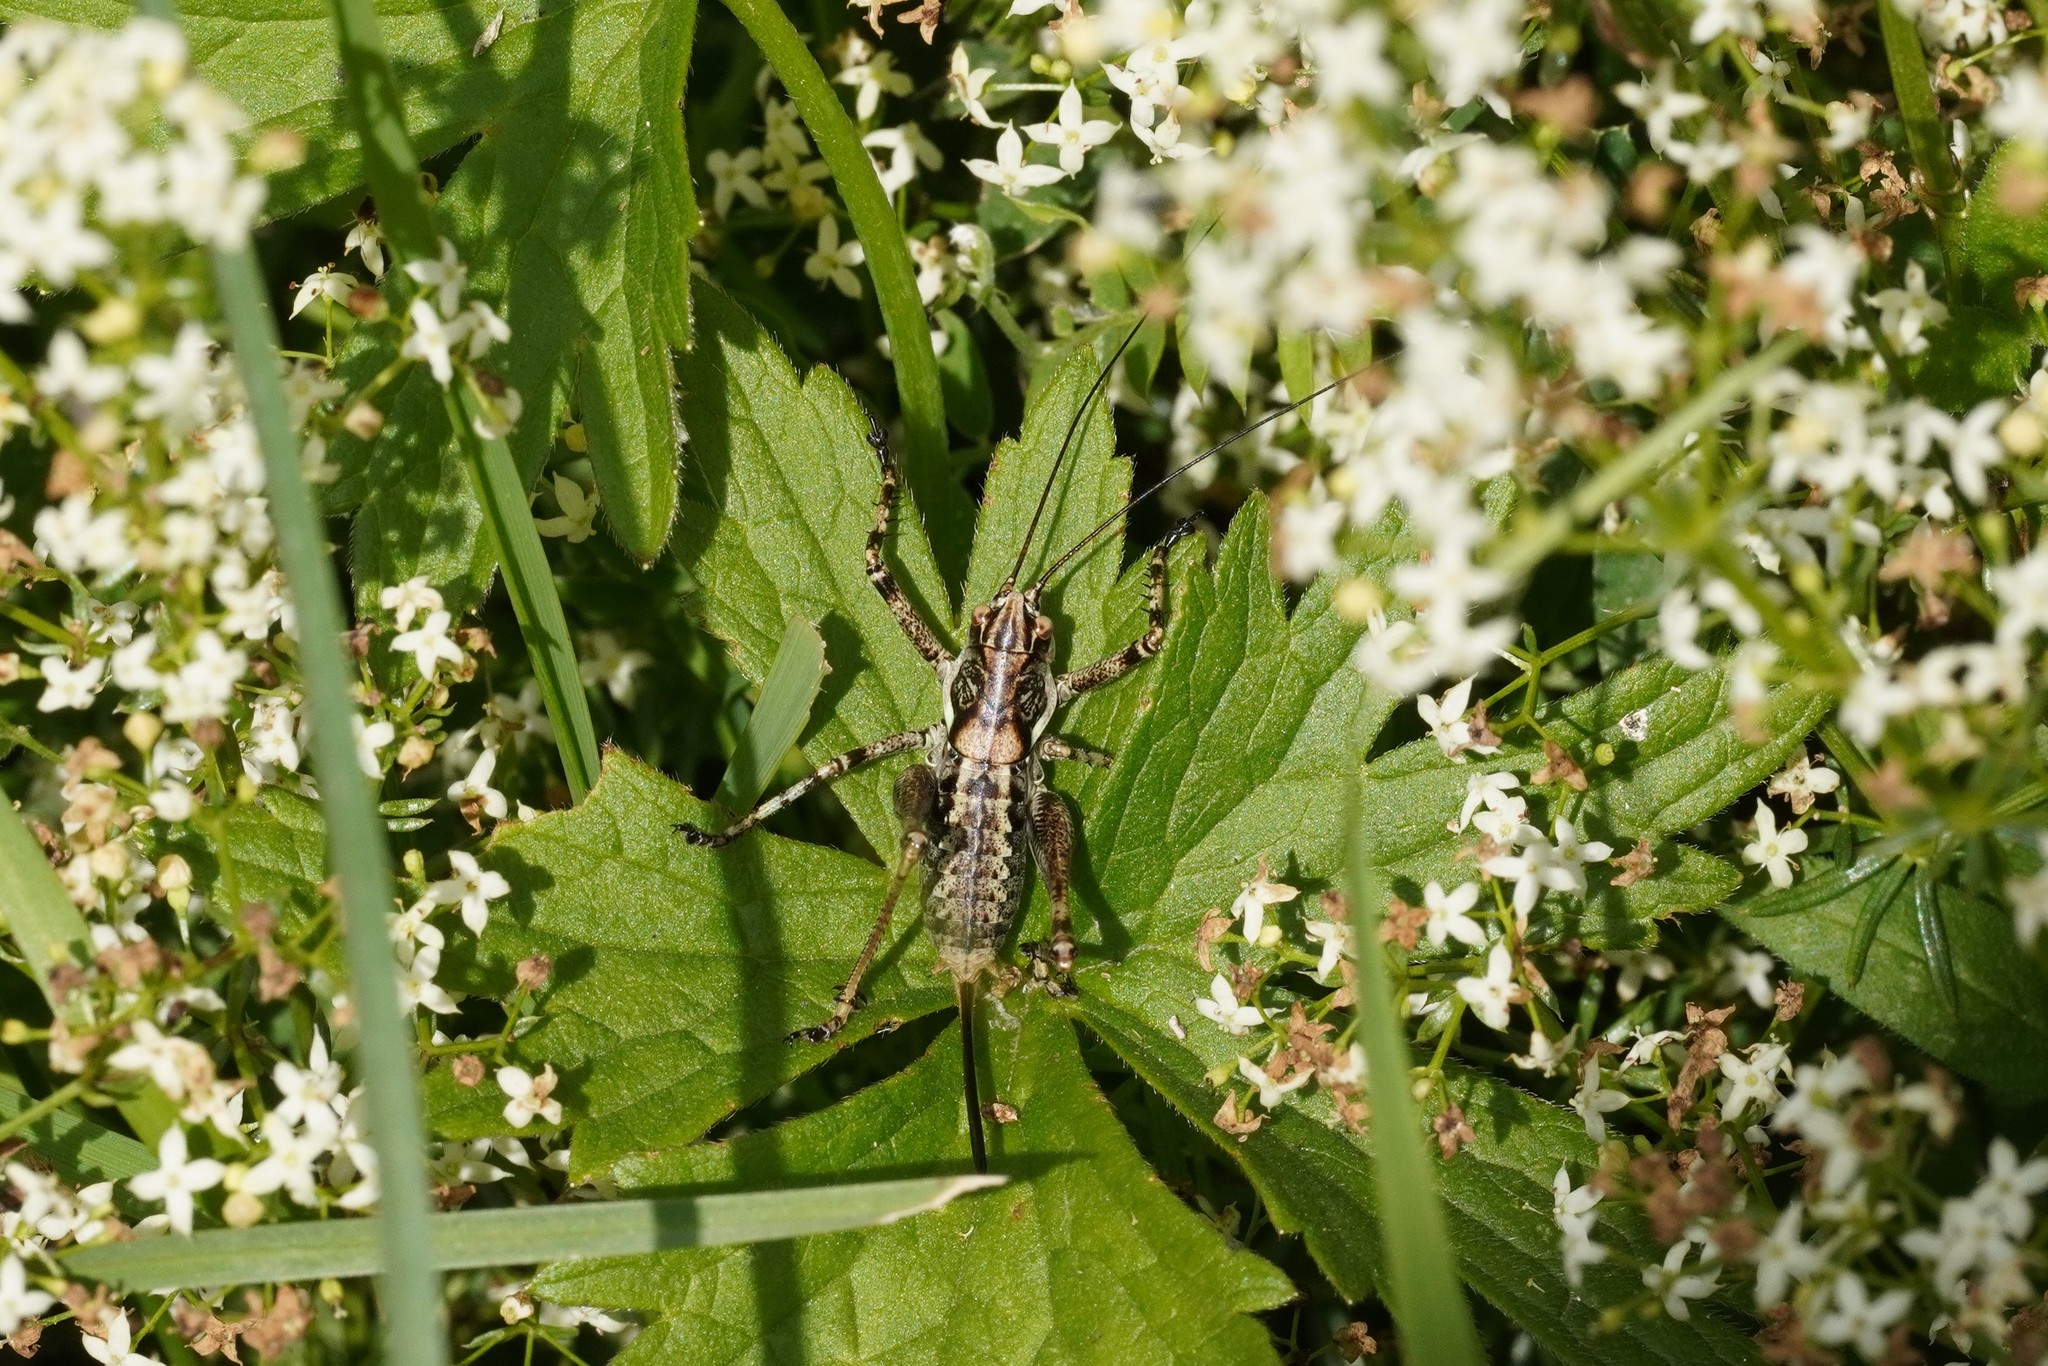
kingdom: Animalia
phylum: Arthropoda
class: Insecta
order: Orthoptera
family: Tettigoniidae
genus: Antaxius
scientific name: Antaxius pedestris
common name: Common mountain bush-cricket
